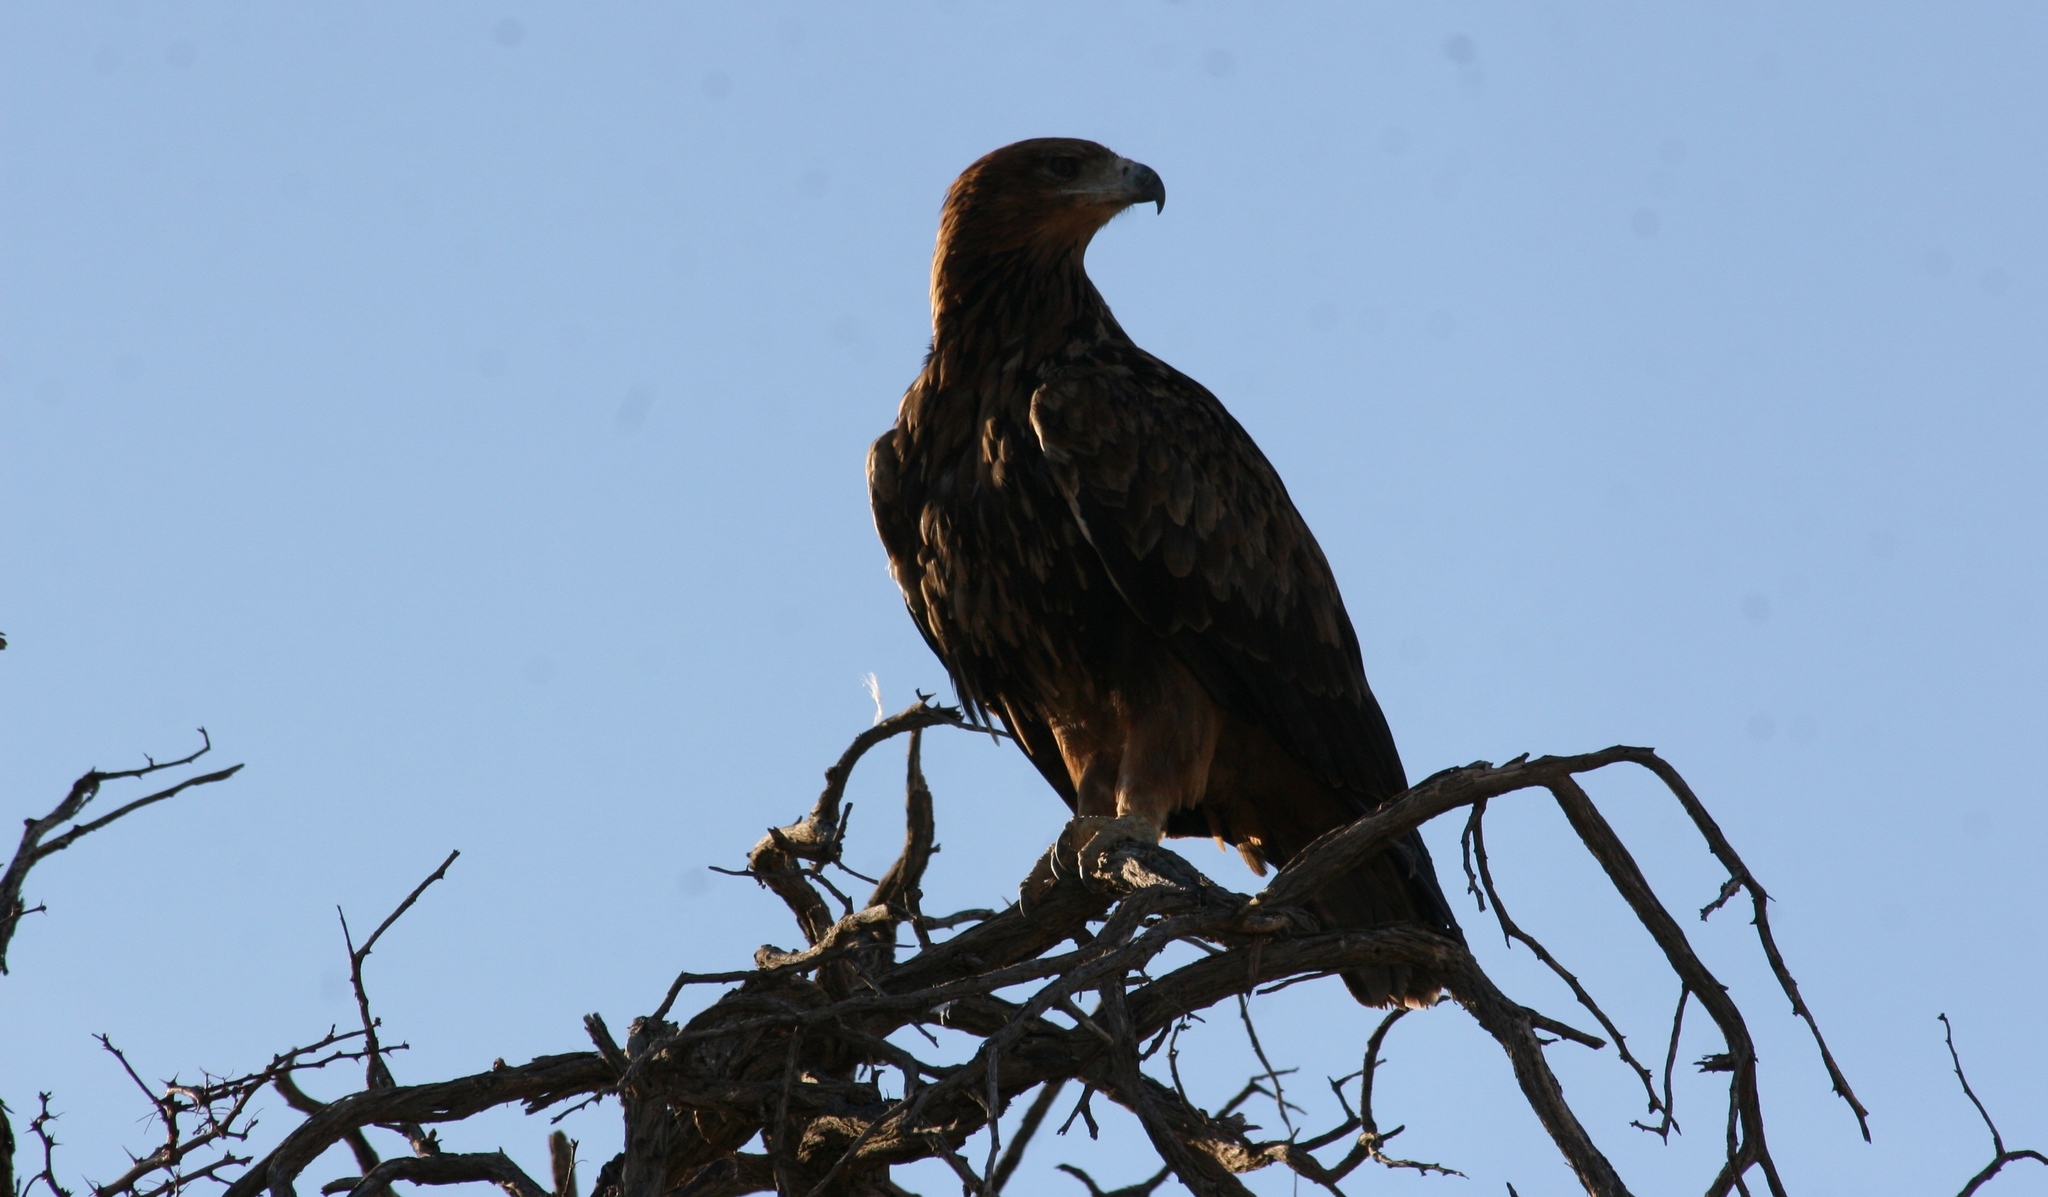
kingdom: Animalia
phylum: Chordata
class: Aves
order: Accipitriformes
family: Accipitridae
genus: Aquila
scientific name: Aquila rapax
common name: Tawny eagle
